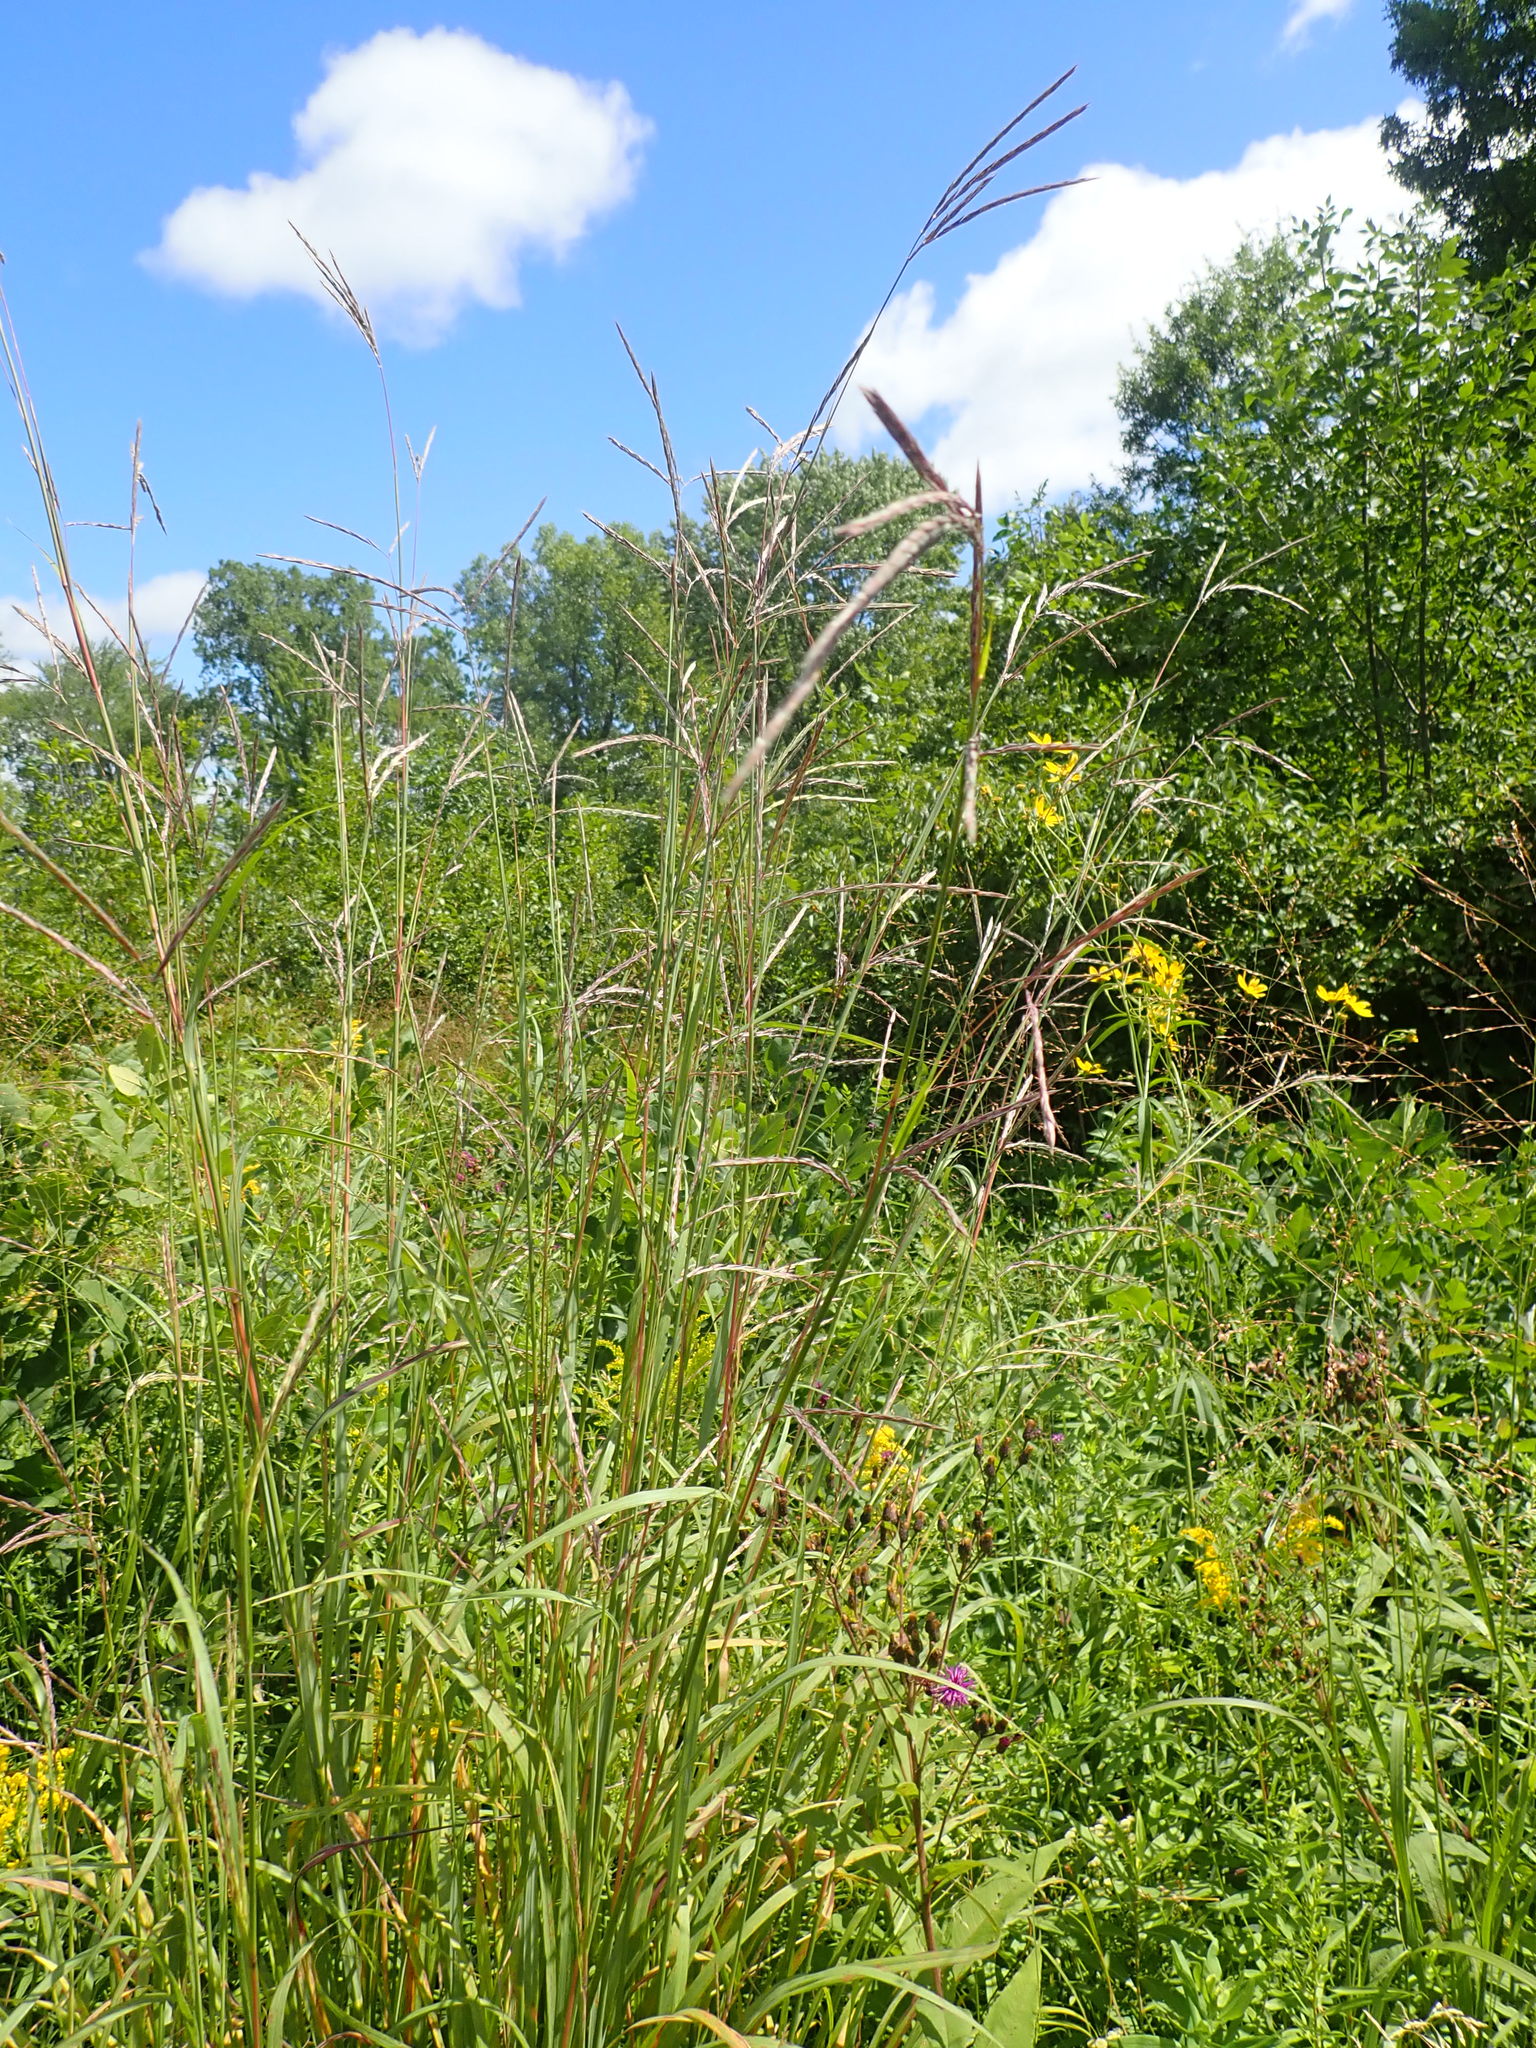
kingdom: Plantae
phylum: Tracheophyta
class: Liliopsida
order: Poales
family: Poaceae
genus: Andropogon
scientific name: Andropogon gerardi
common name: Big bluestem
